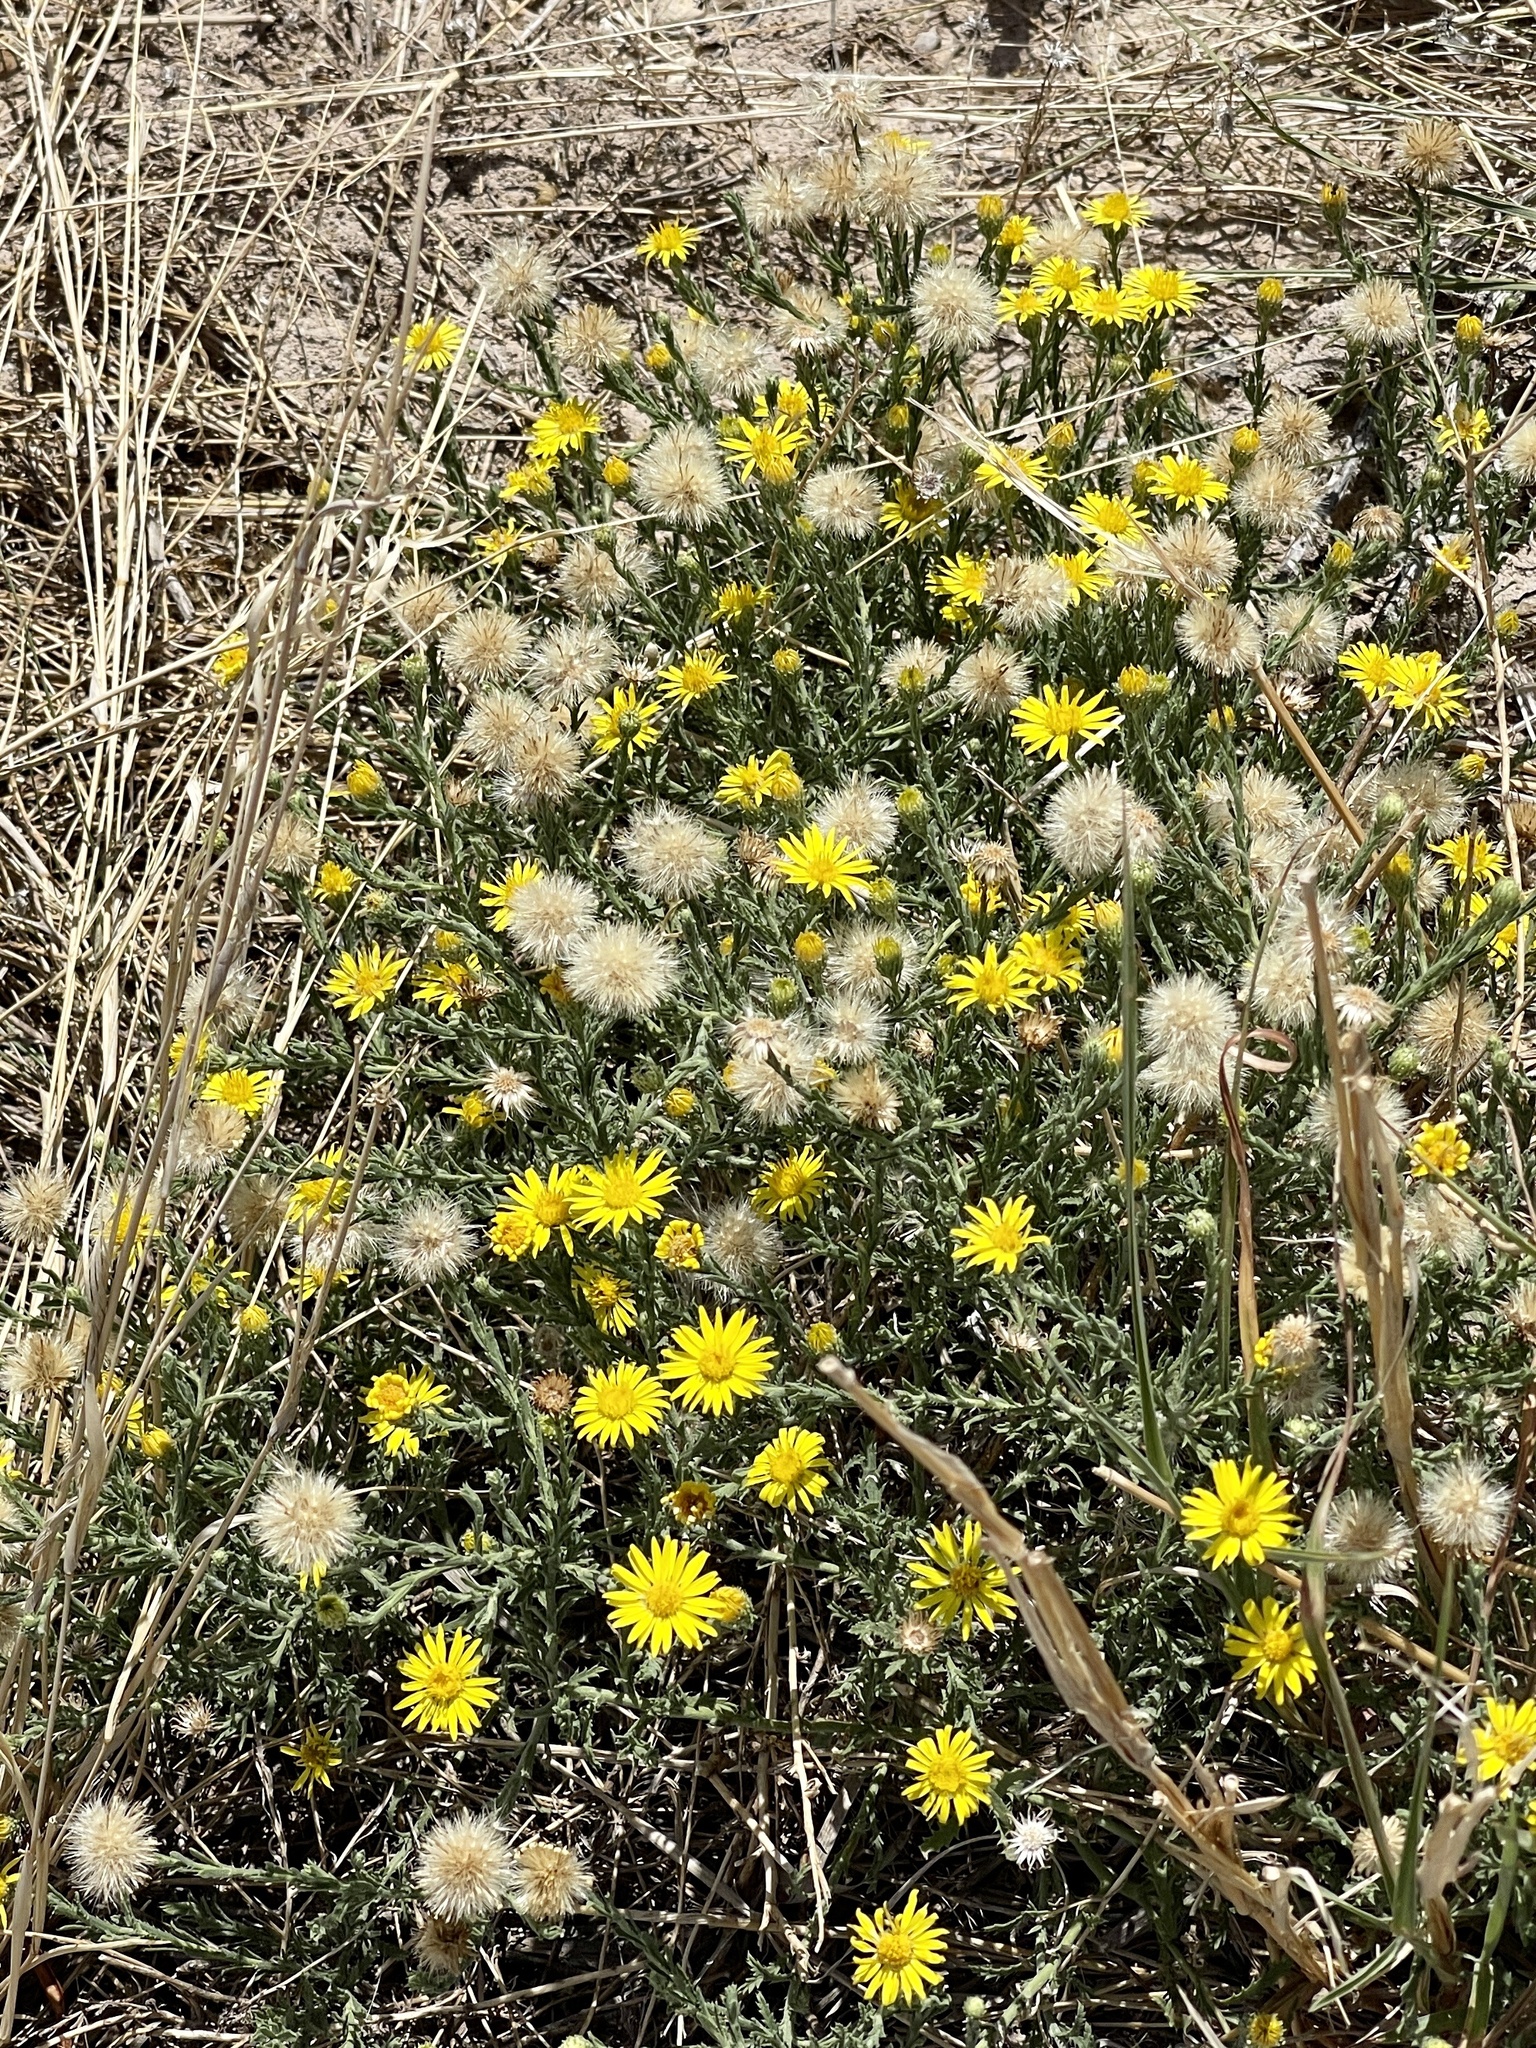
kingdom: Plantae
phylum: Tracheophyta
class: Magnoliopsida
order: Asterales
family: Asteraceae
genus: Xanthisma
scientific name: Xanthisma spinulosum
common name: Spiny goldenweed
